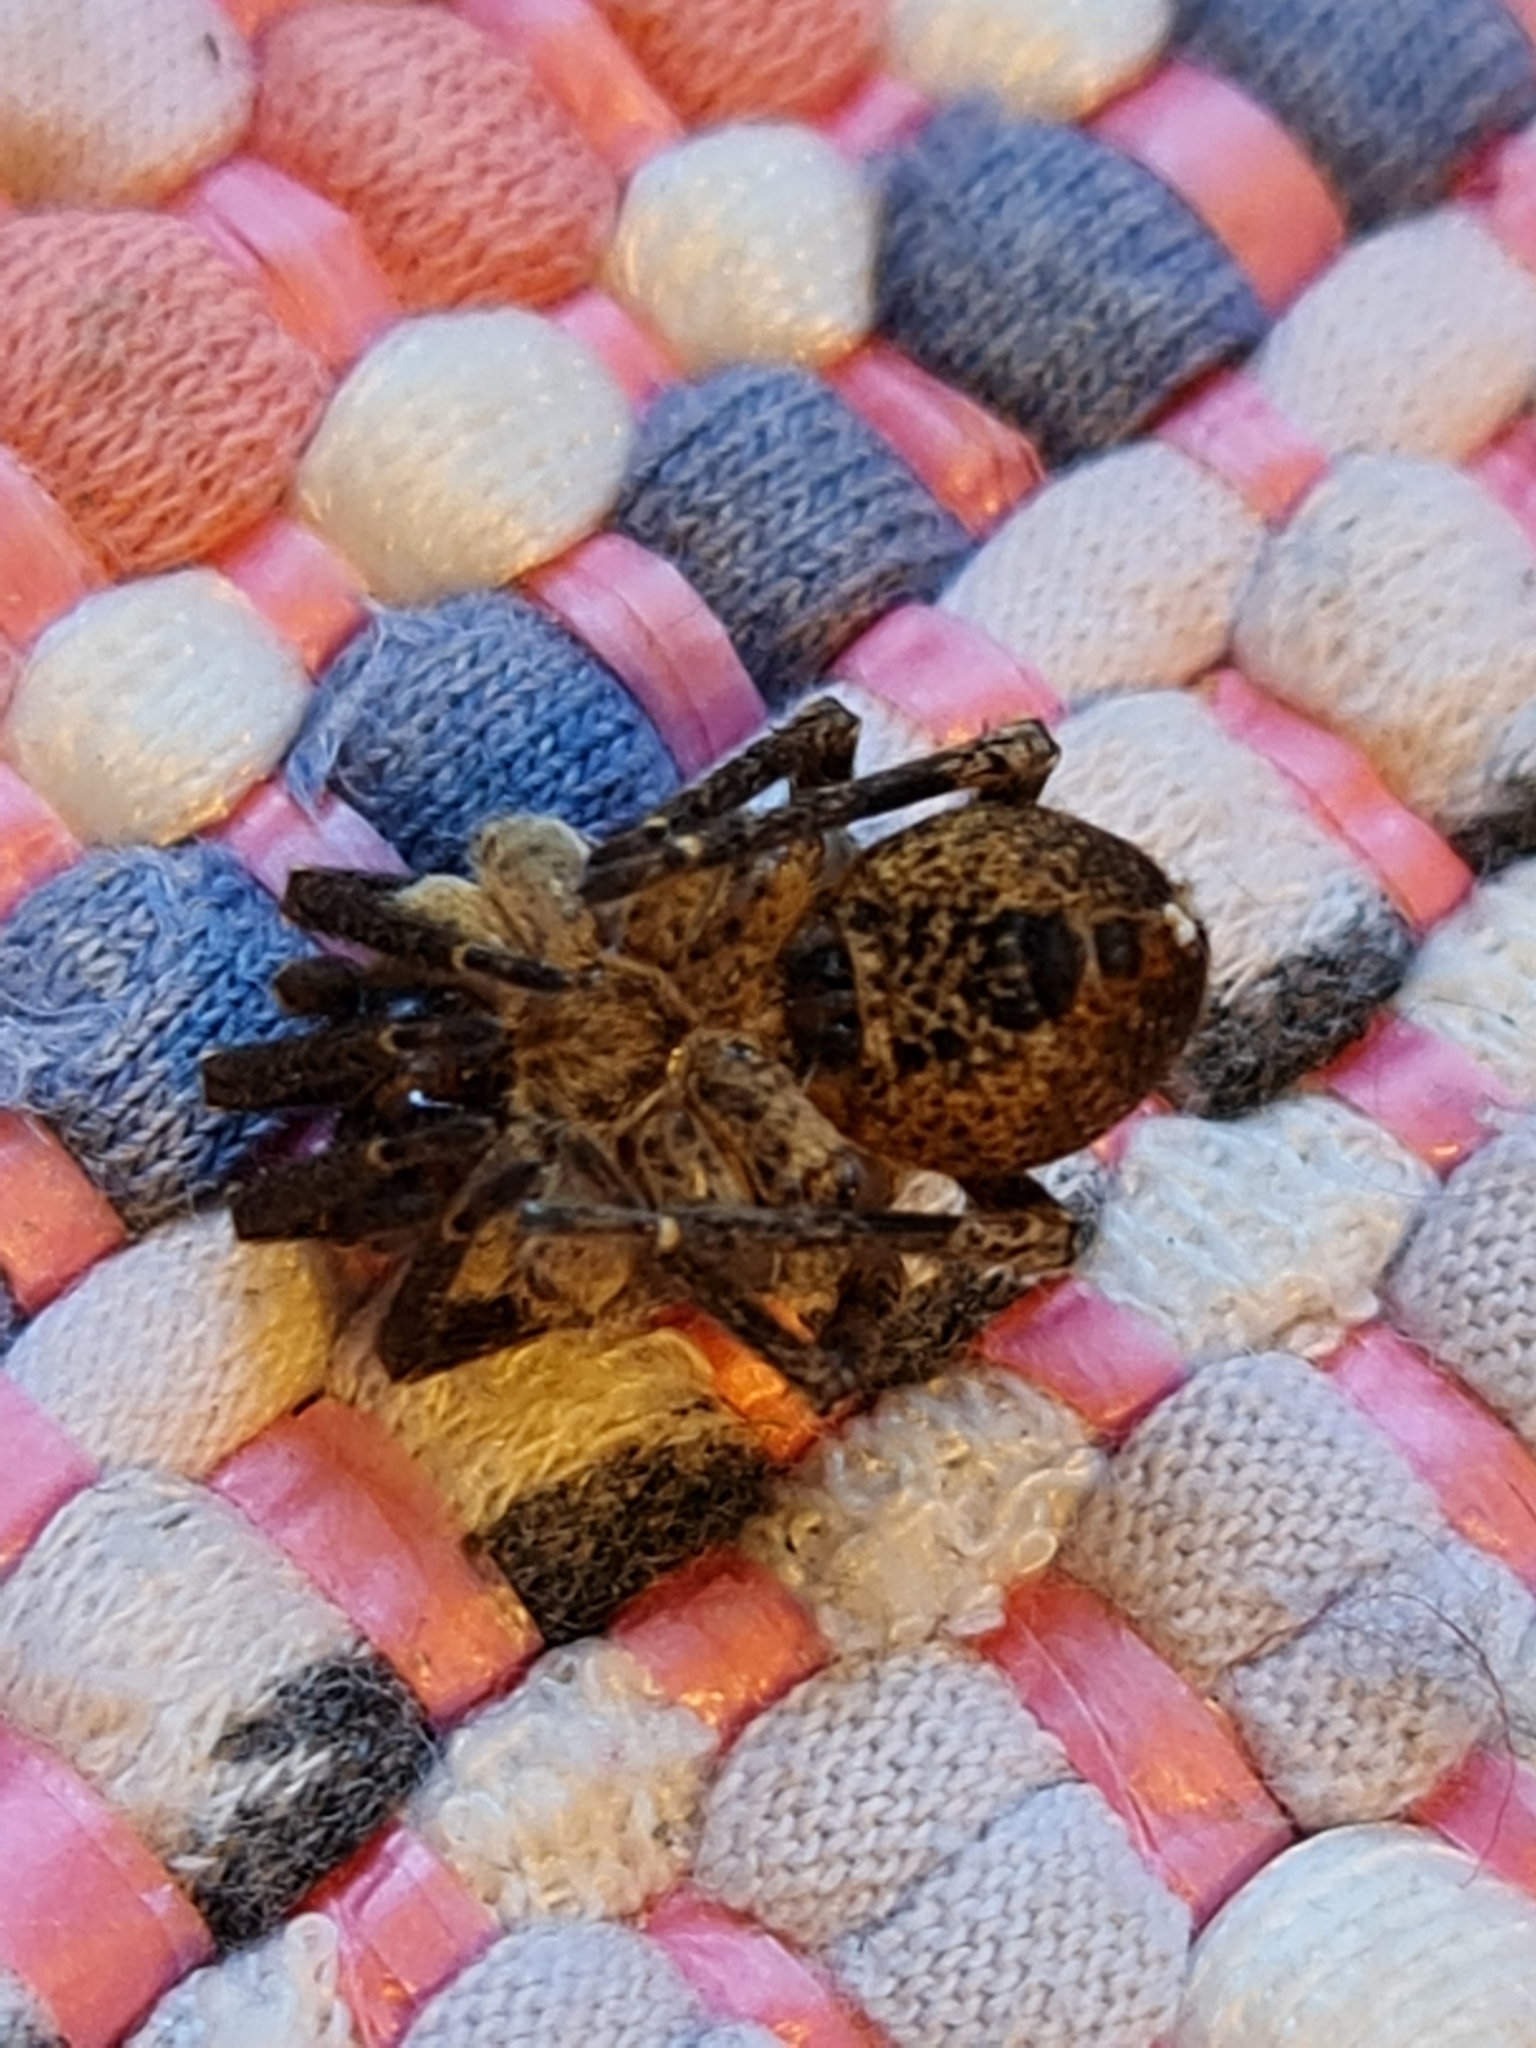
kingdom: Animalia
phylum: Arthropoda
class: Arachnida
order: Araneae
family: Zoropsidae
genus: Zoropsis
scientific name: Zoropsis spinimana
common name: Zoropsid spider
